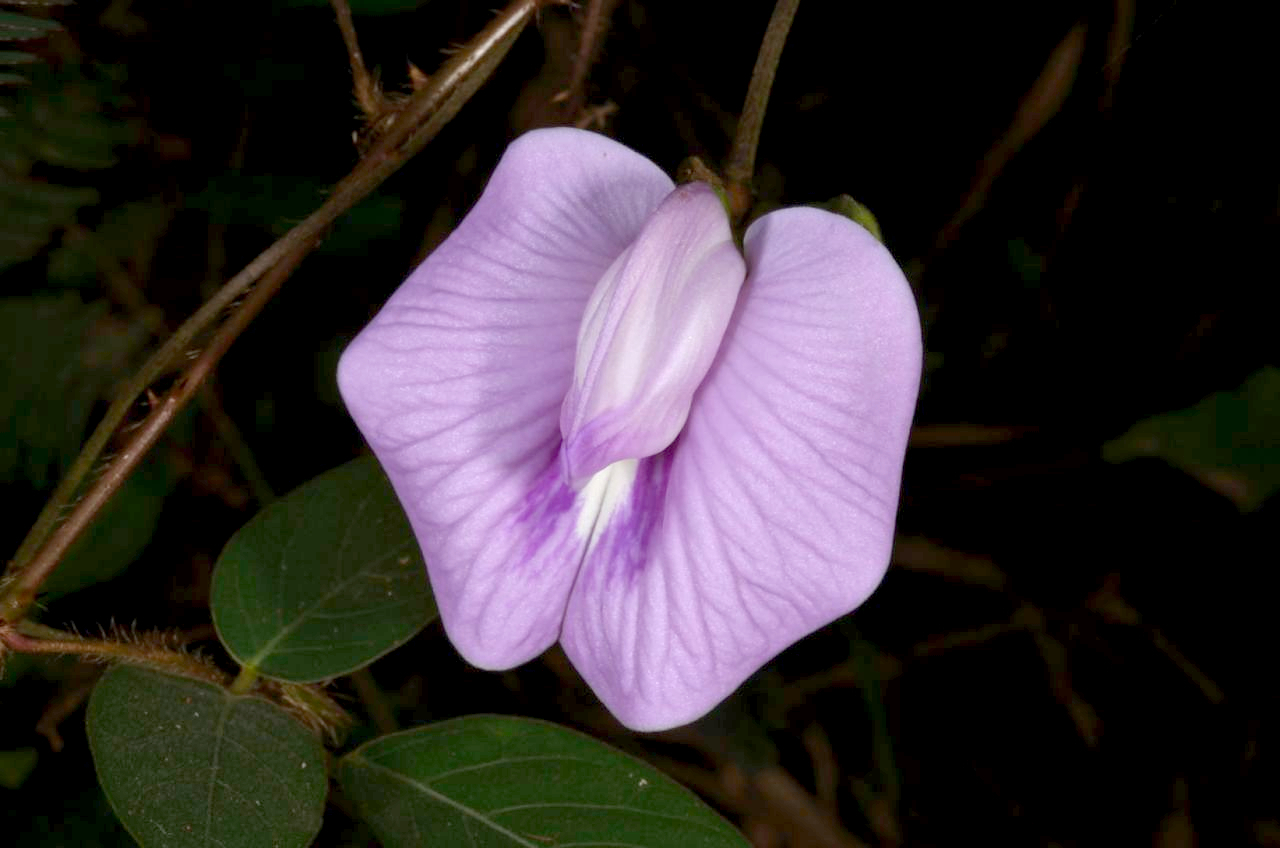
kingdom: Plantae
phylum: Tracheophyta
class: Magnoliopsida
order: Fabales
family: Fabaceae
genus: Centrosema
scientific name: Centrosema virginianum
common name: Butterfly-pea
